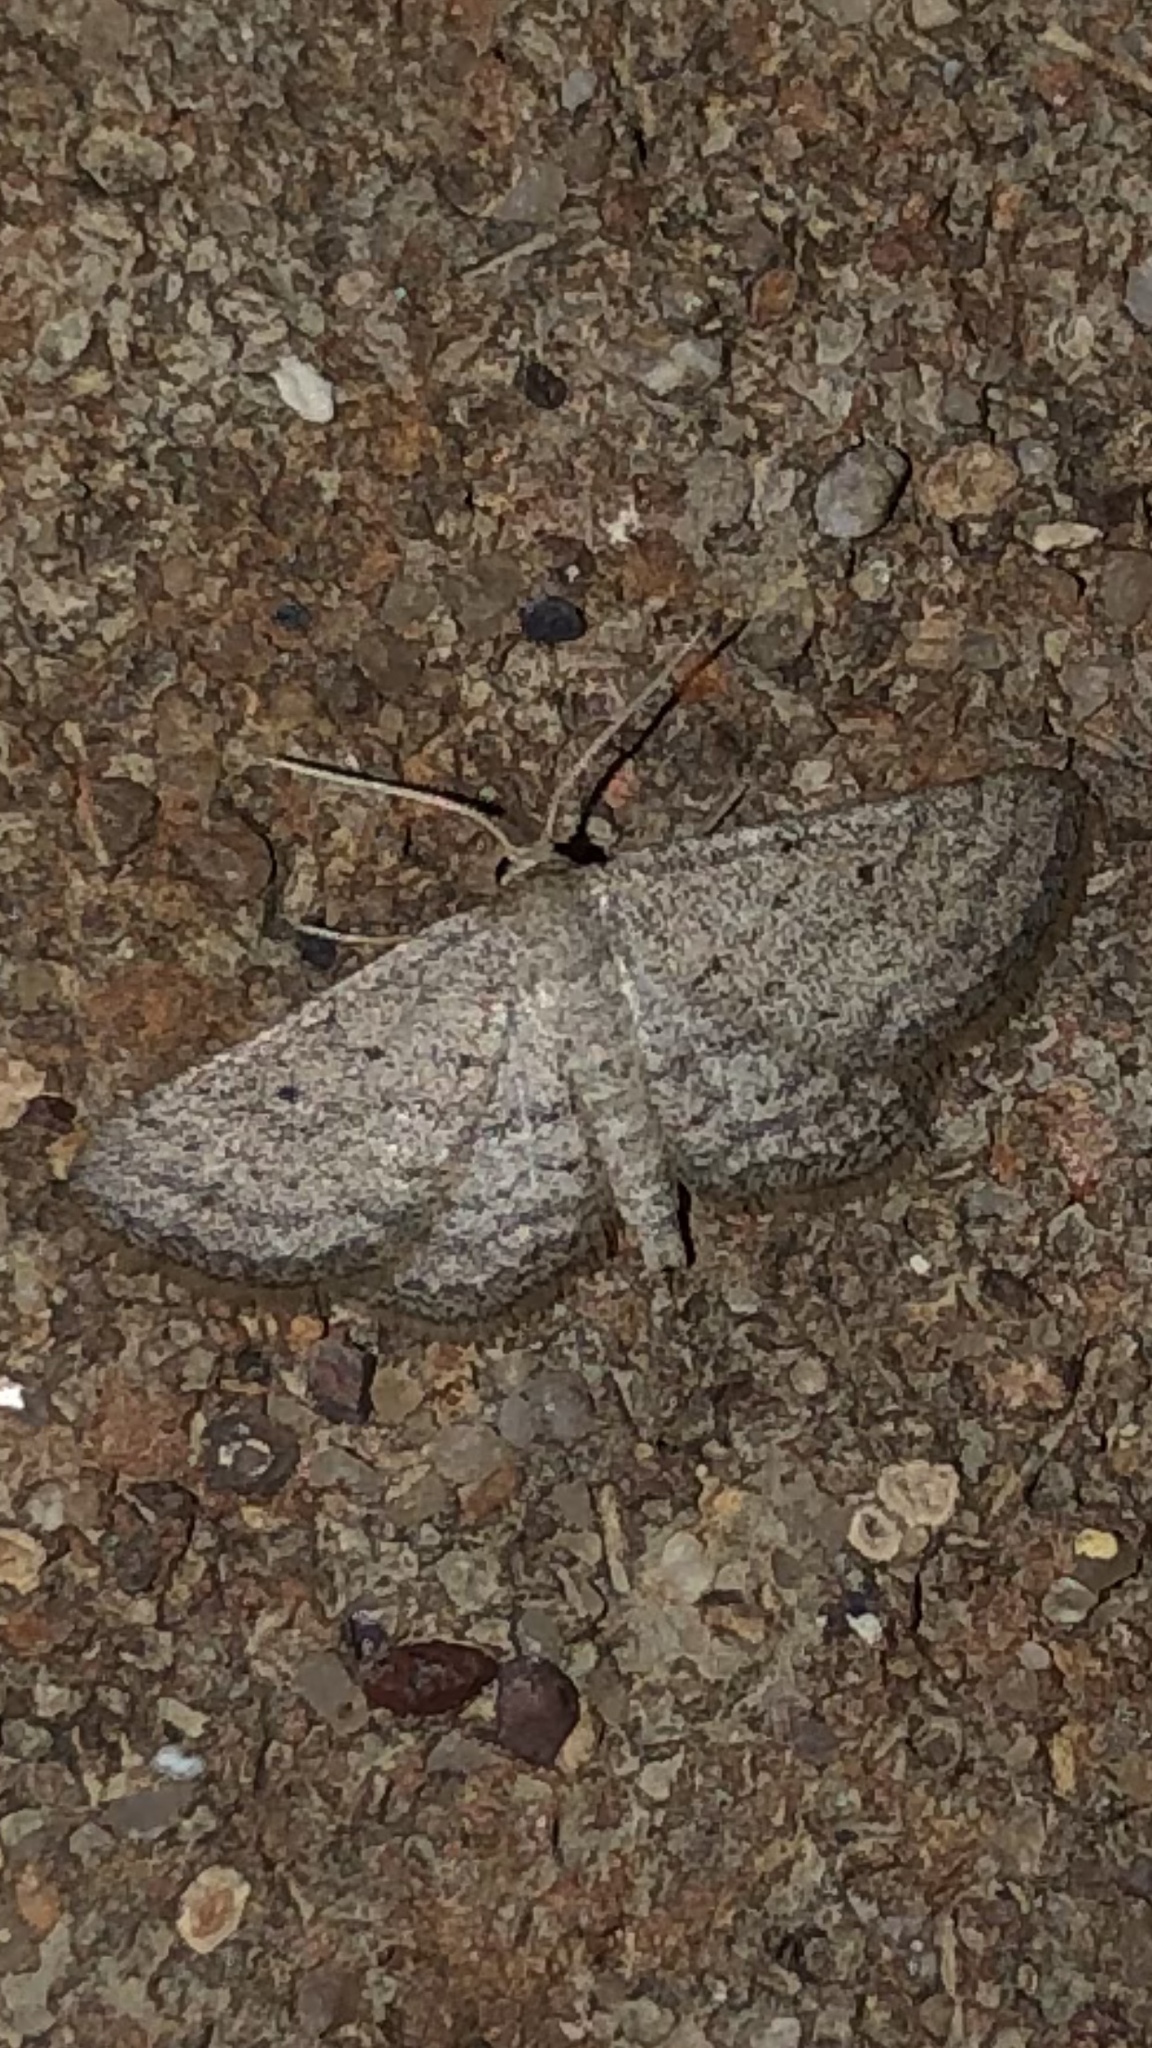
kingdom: Animalia
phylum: Arthropoda
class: Insecta
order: Lepidoptera
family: Geometridae
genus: Lobocleta
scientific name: Lobocleta ossularia
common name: Drab brown wave
